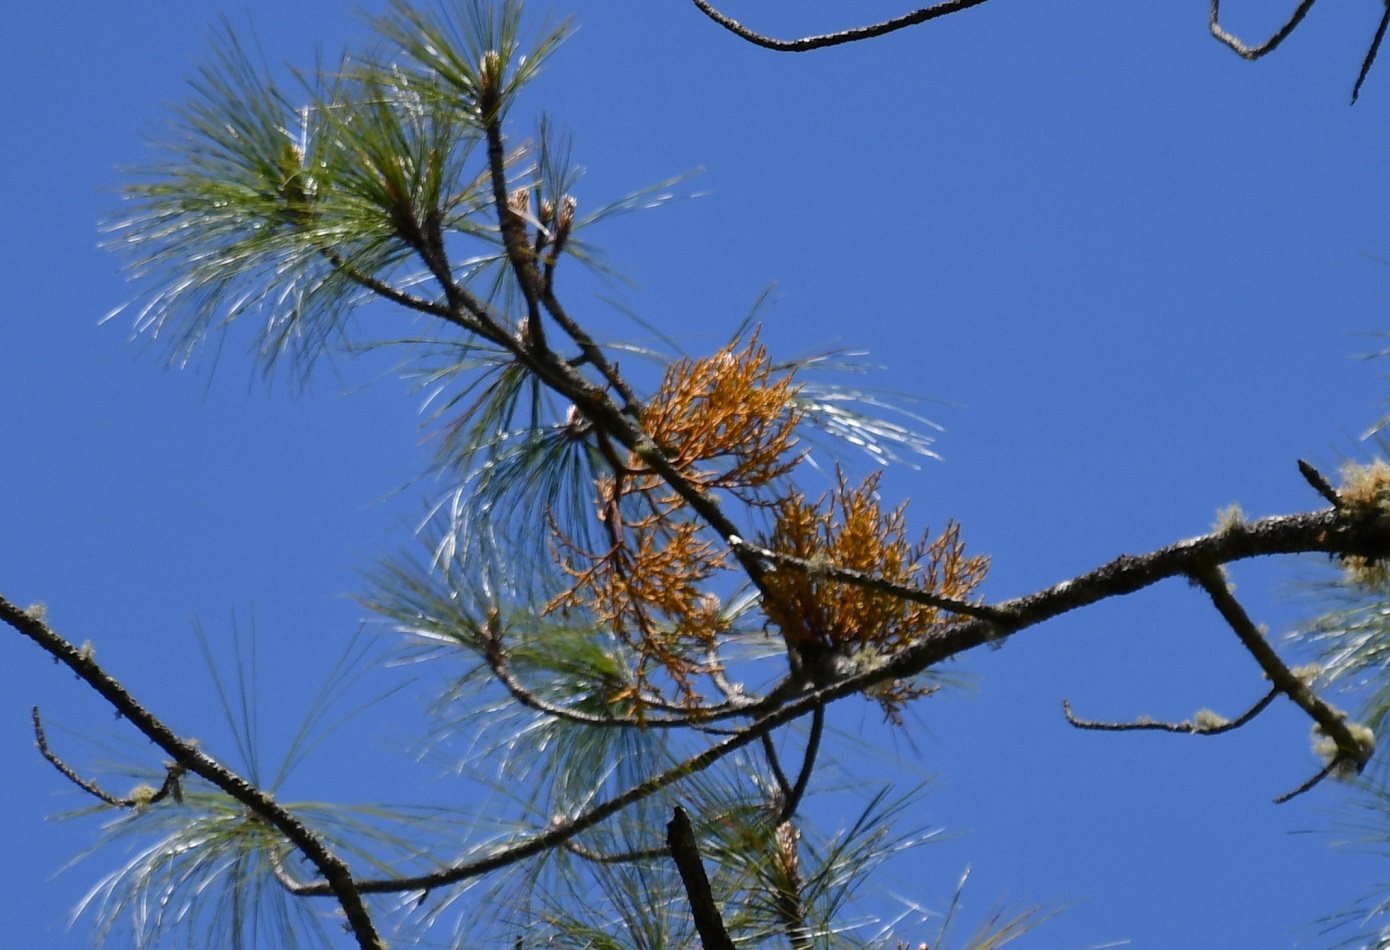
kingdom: Plantae
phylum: Tracheophyta
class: Magnoliopsida
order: Santalales
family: Viscaceae
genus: Arceuthobium
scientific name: Arceuthobium globosum
